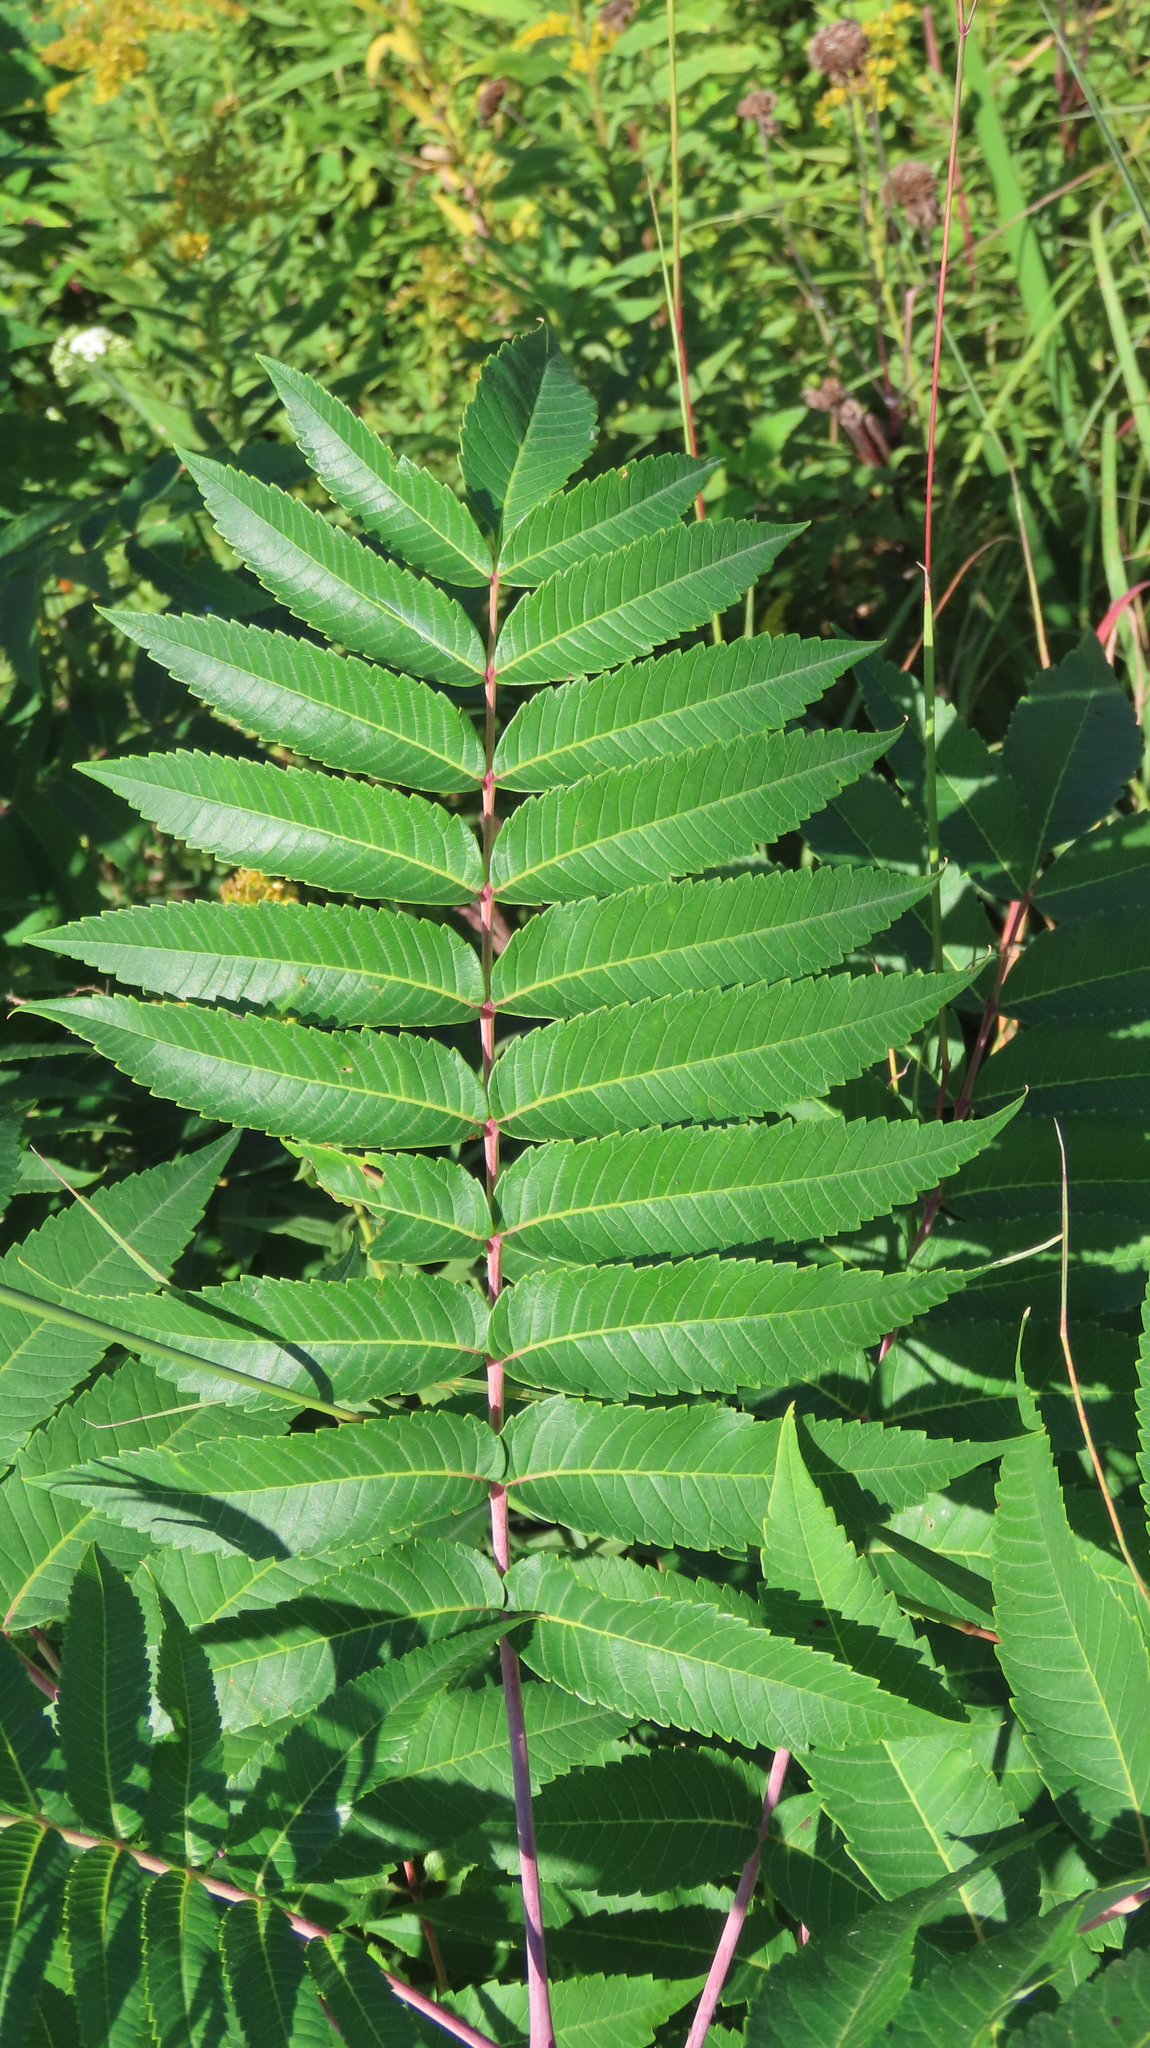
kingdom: Plantae
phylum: Tracheophyta
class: Magnoliopsida
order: Sapindales
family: Anacardiaceae
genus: Rhus
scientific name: Rhus glabra
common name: Scarlet sumac
